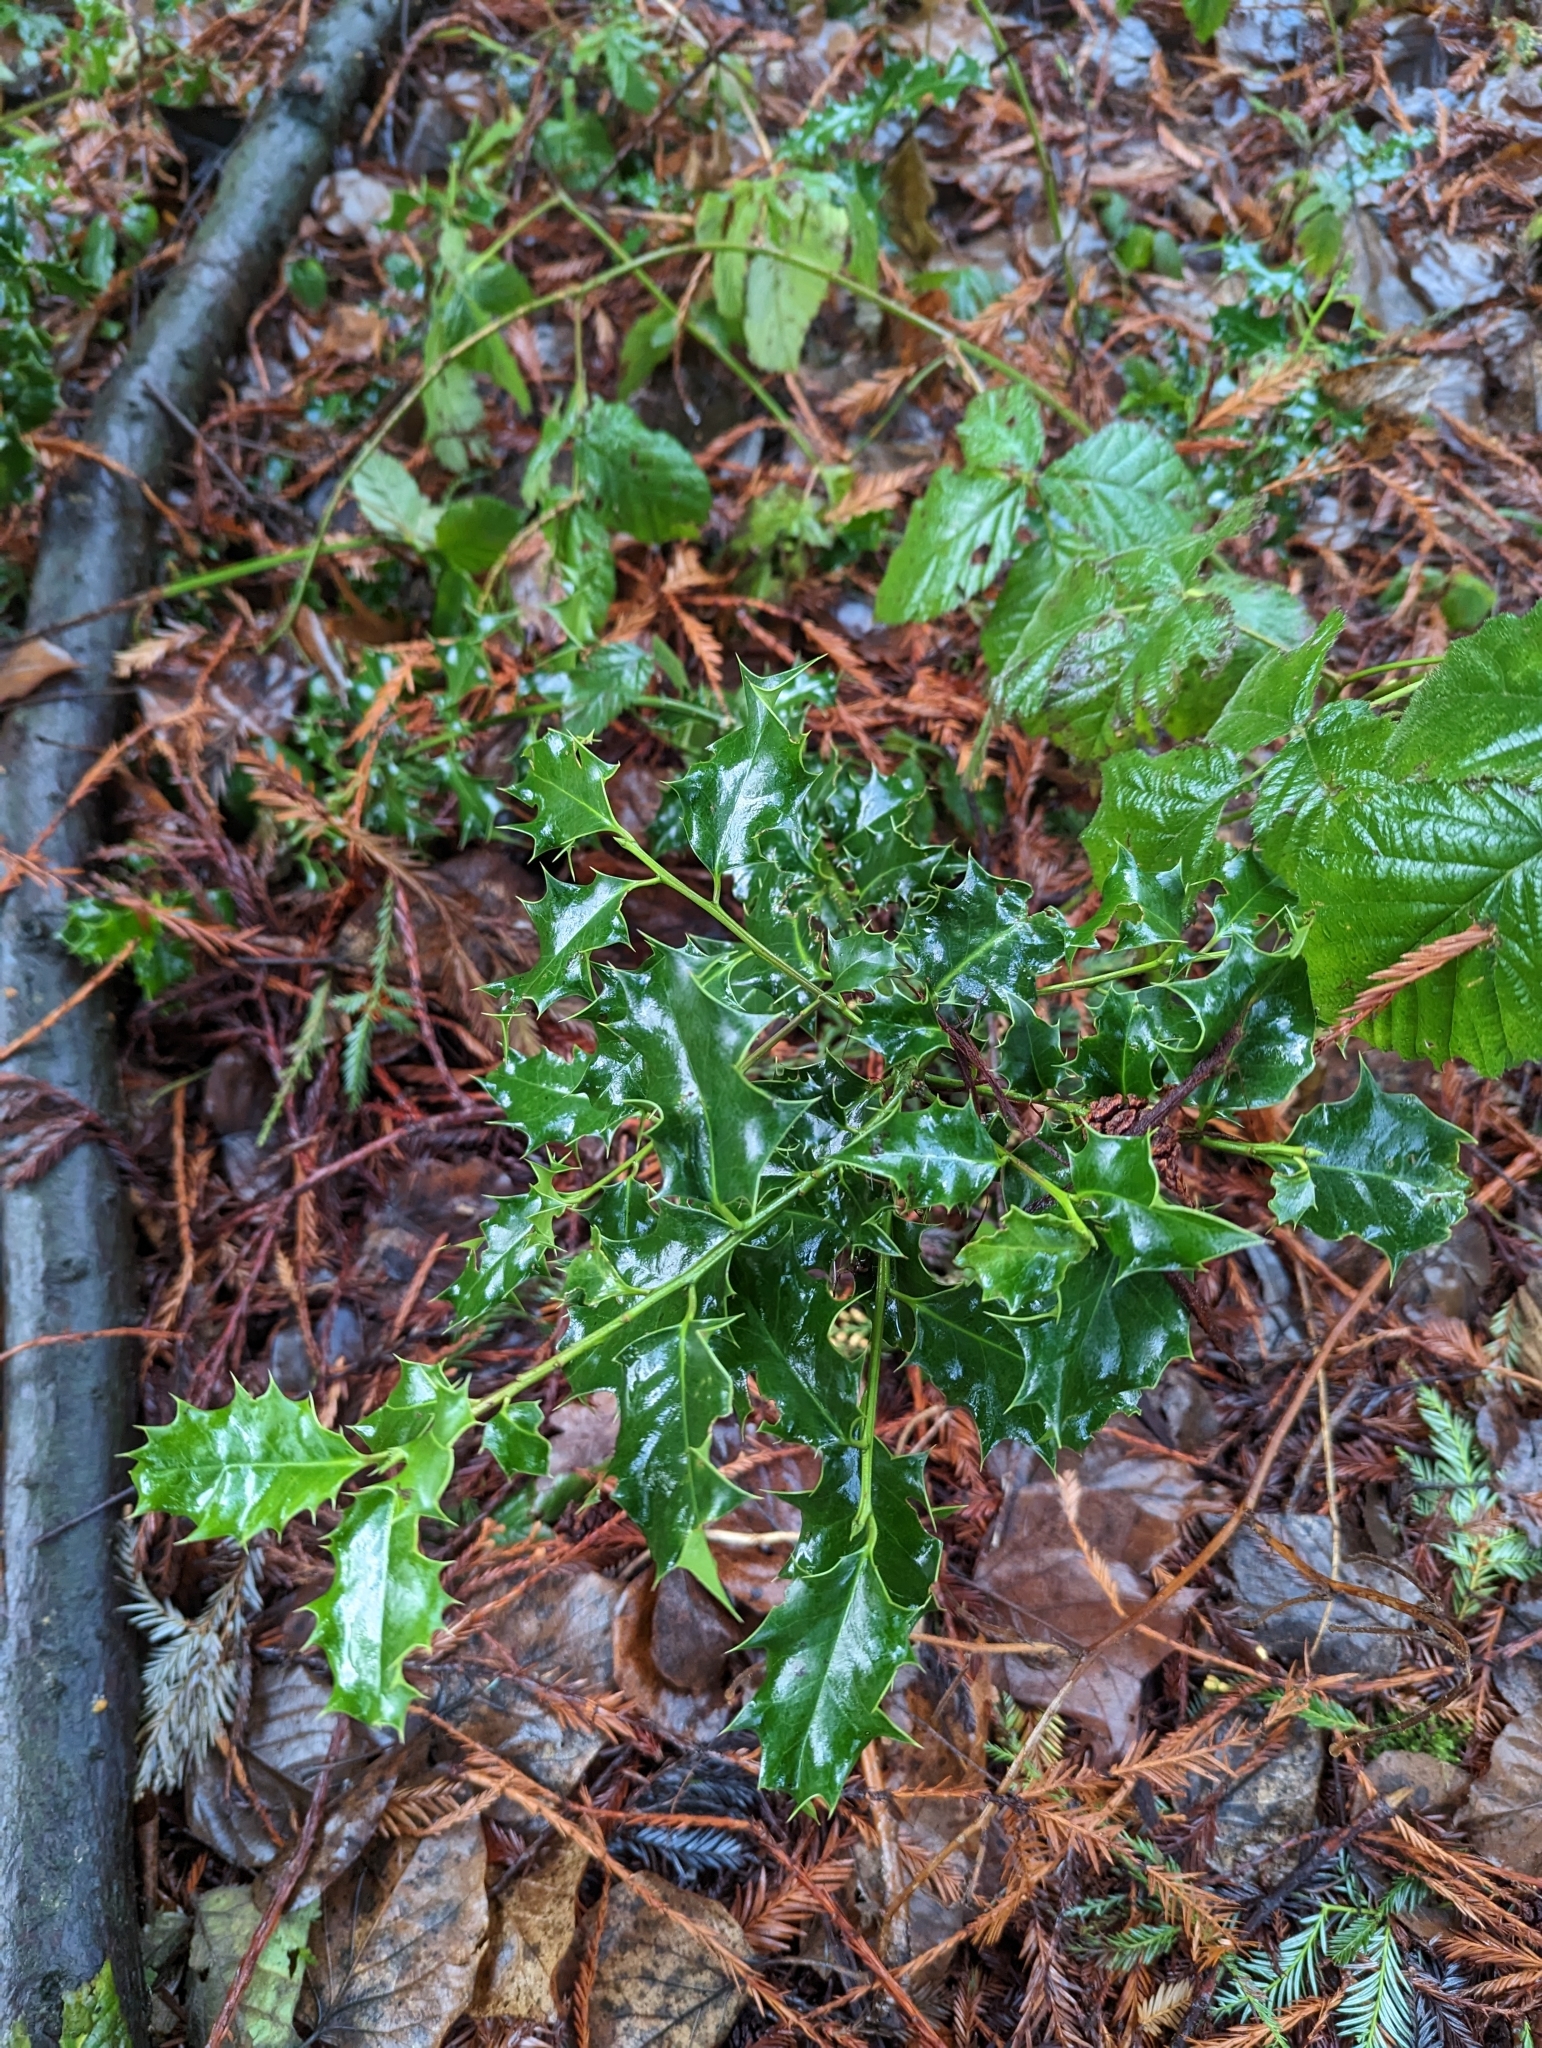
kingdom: Plantae
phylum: Tracheophyta
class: Magnoliopsida
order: Aquifoliales
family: Aquifoliaceae
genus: Ilex
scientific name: Ilex aquifolium
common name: English holly
